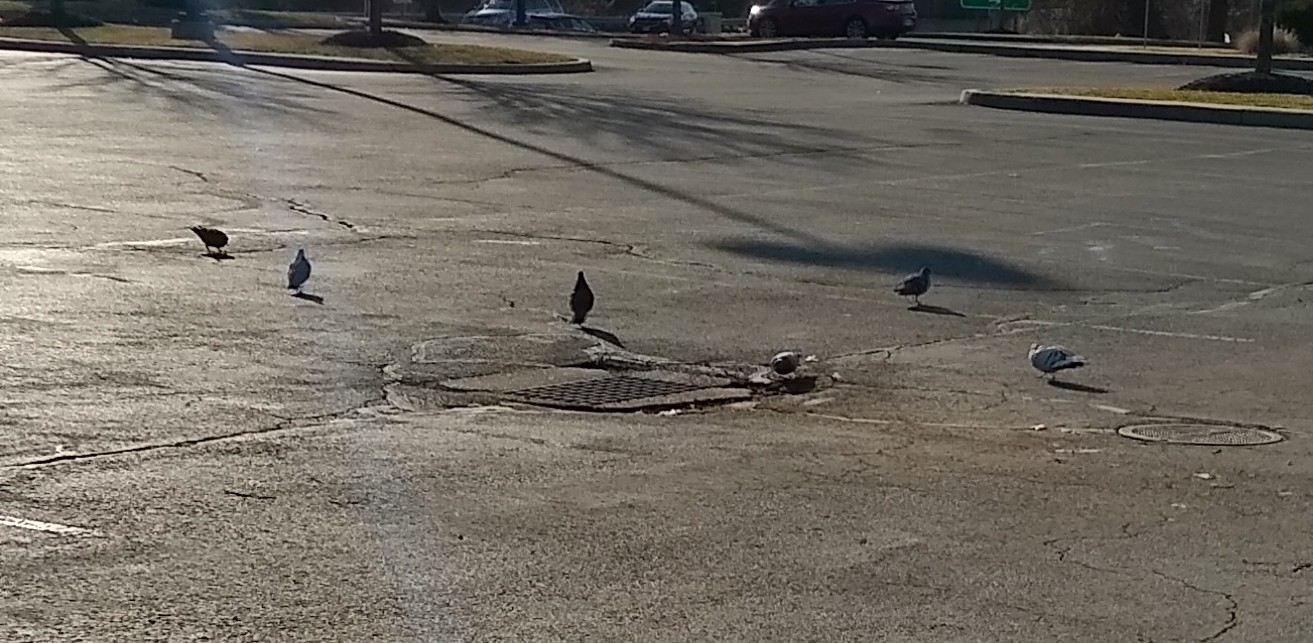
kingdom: Animalia
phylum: Chordata
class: Aves
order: Columbiformes
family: Columbidae
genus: Columba
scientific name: Columba livia
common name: Rock pigeon
